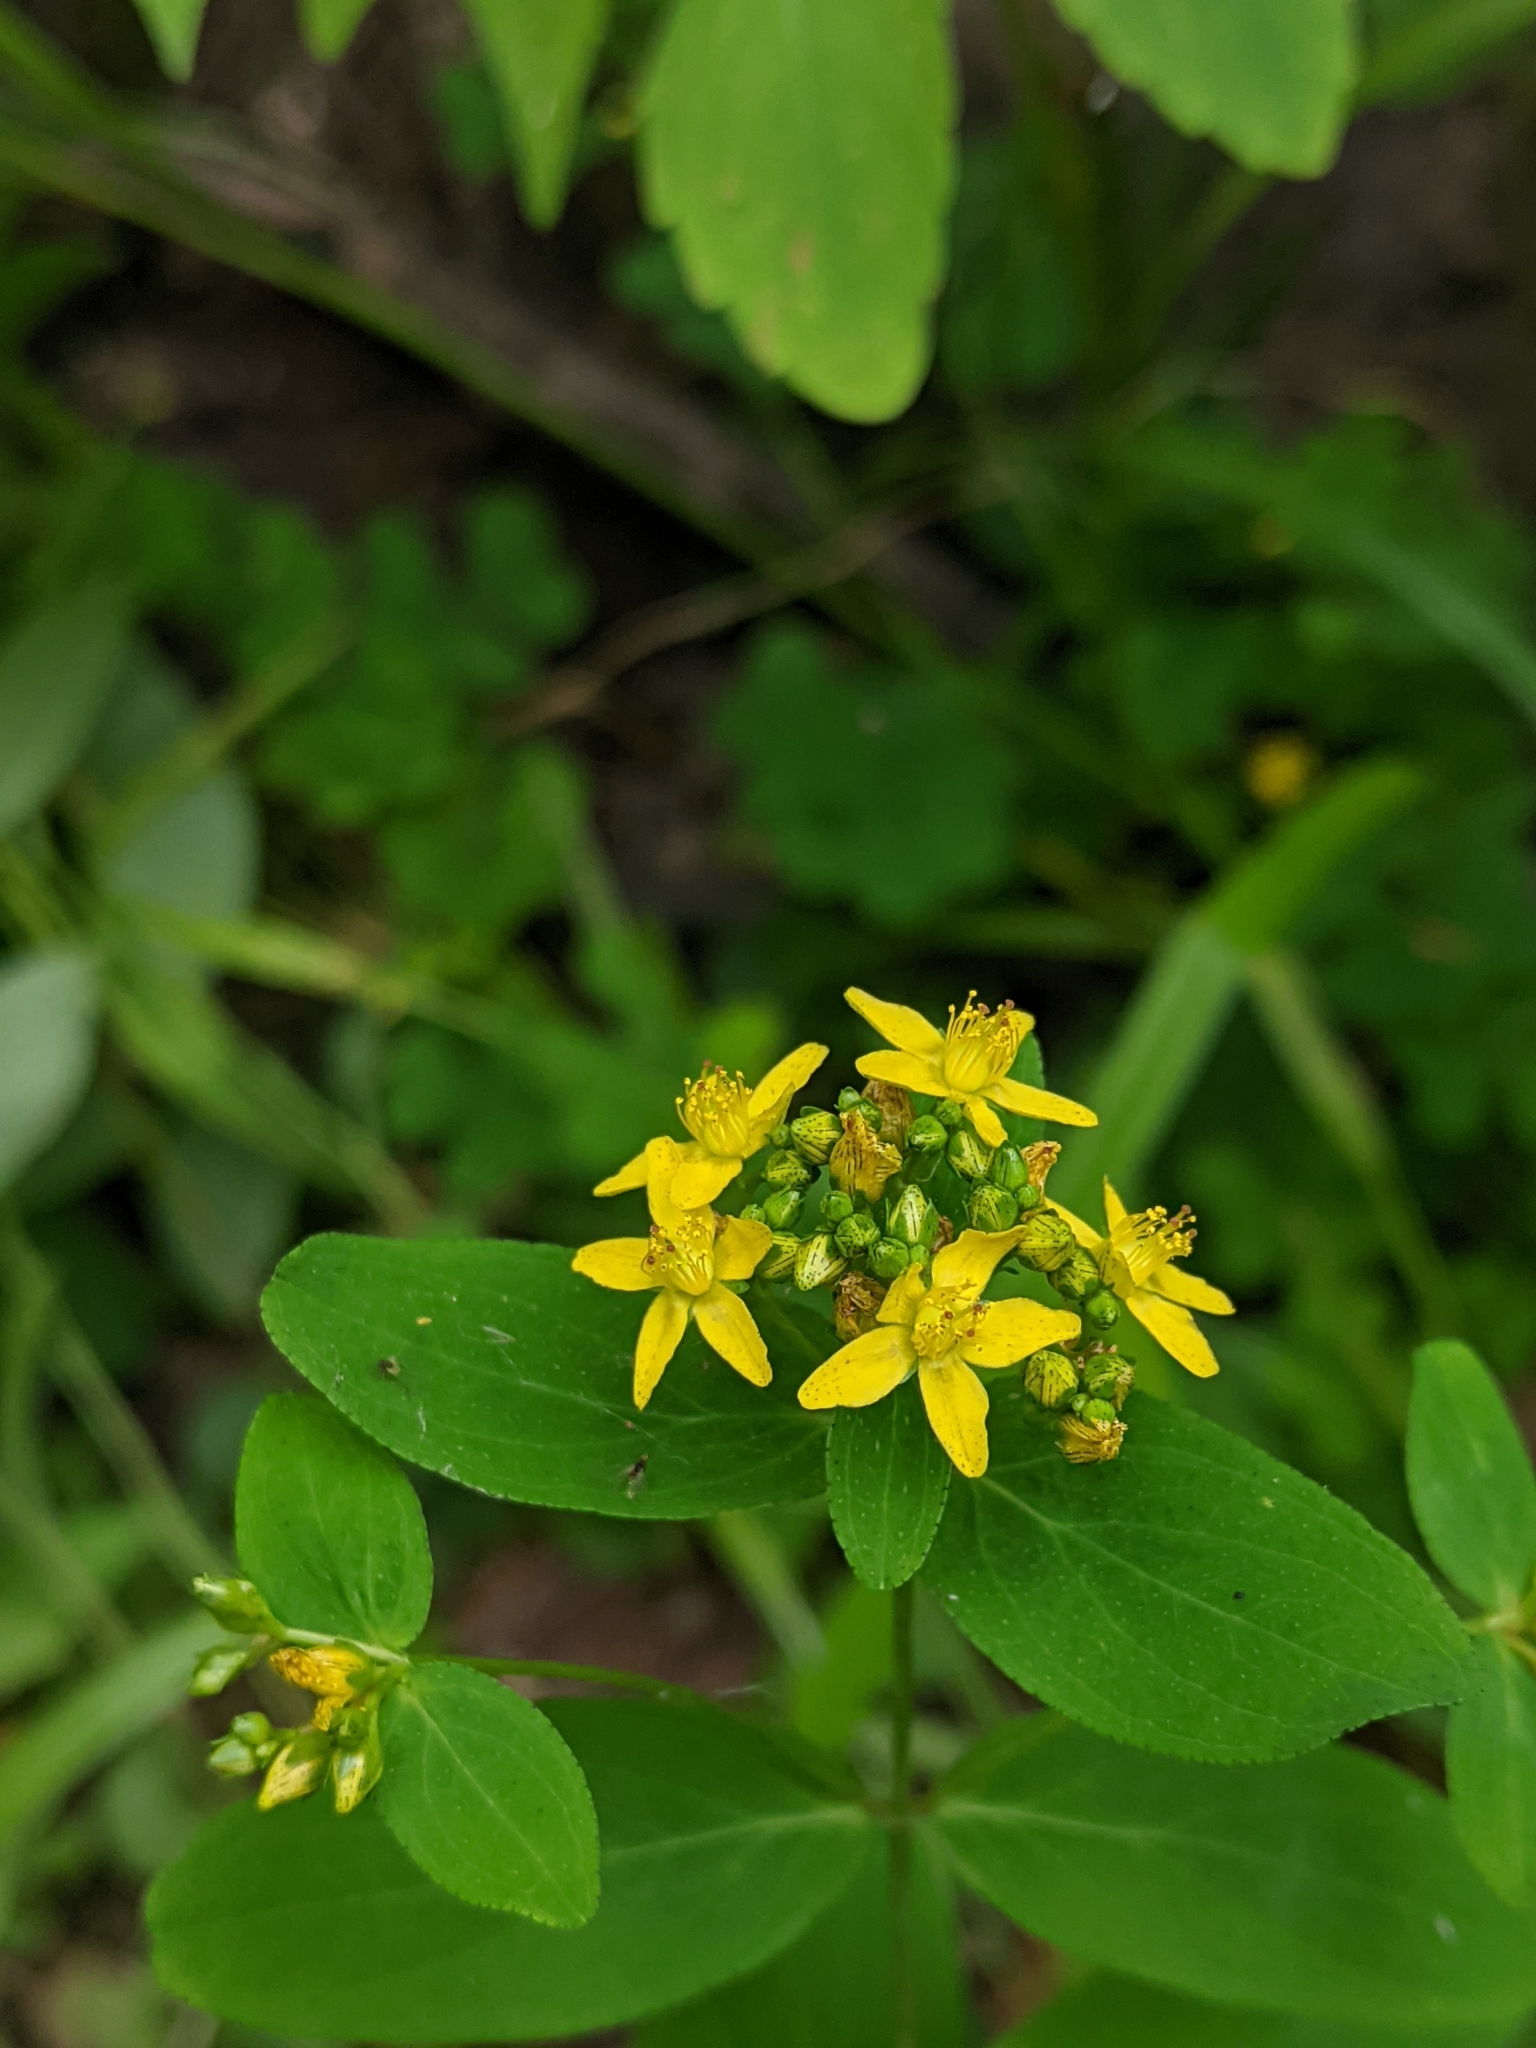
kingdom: Plantae
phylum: Tracheophyta
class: Magnoliopsida
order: Malpighiales
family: Hypericaceae
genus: Hypericum
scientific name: Hypericum punctatum
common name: Spotted st. john's-wort
